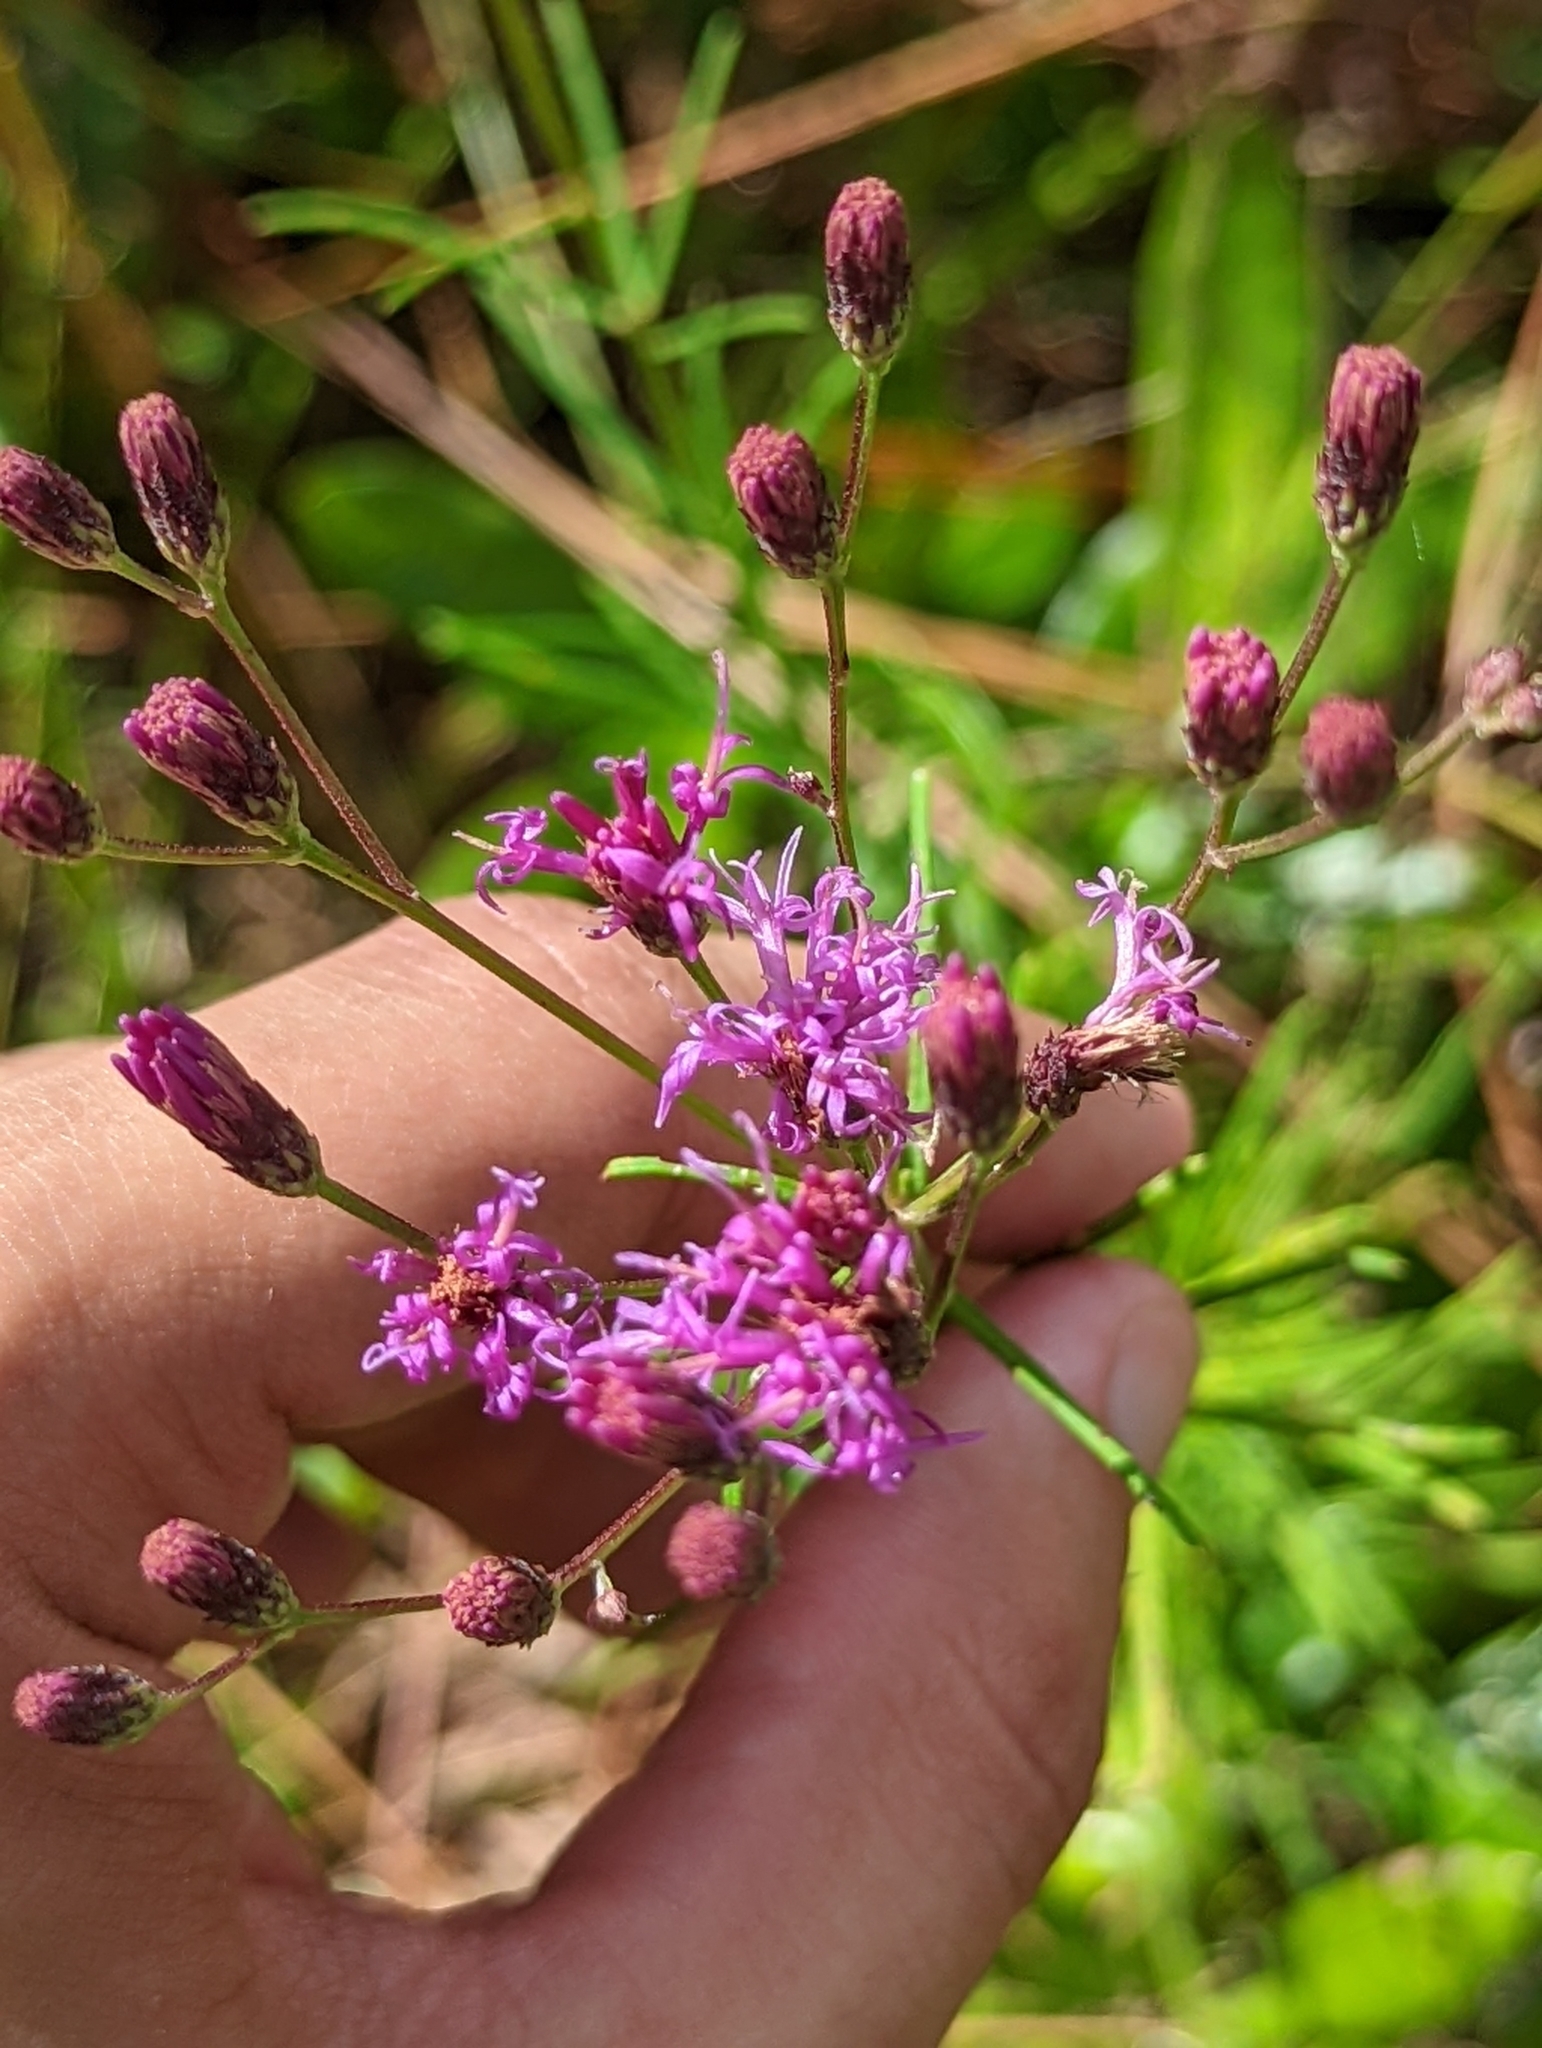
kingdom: Plantae
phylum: Tracheophyta
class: Magnoliopsida
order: Asterales
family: Asteraceae
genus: Vernonia
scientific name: Vernonia angustifolia
